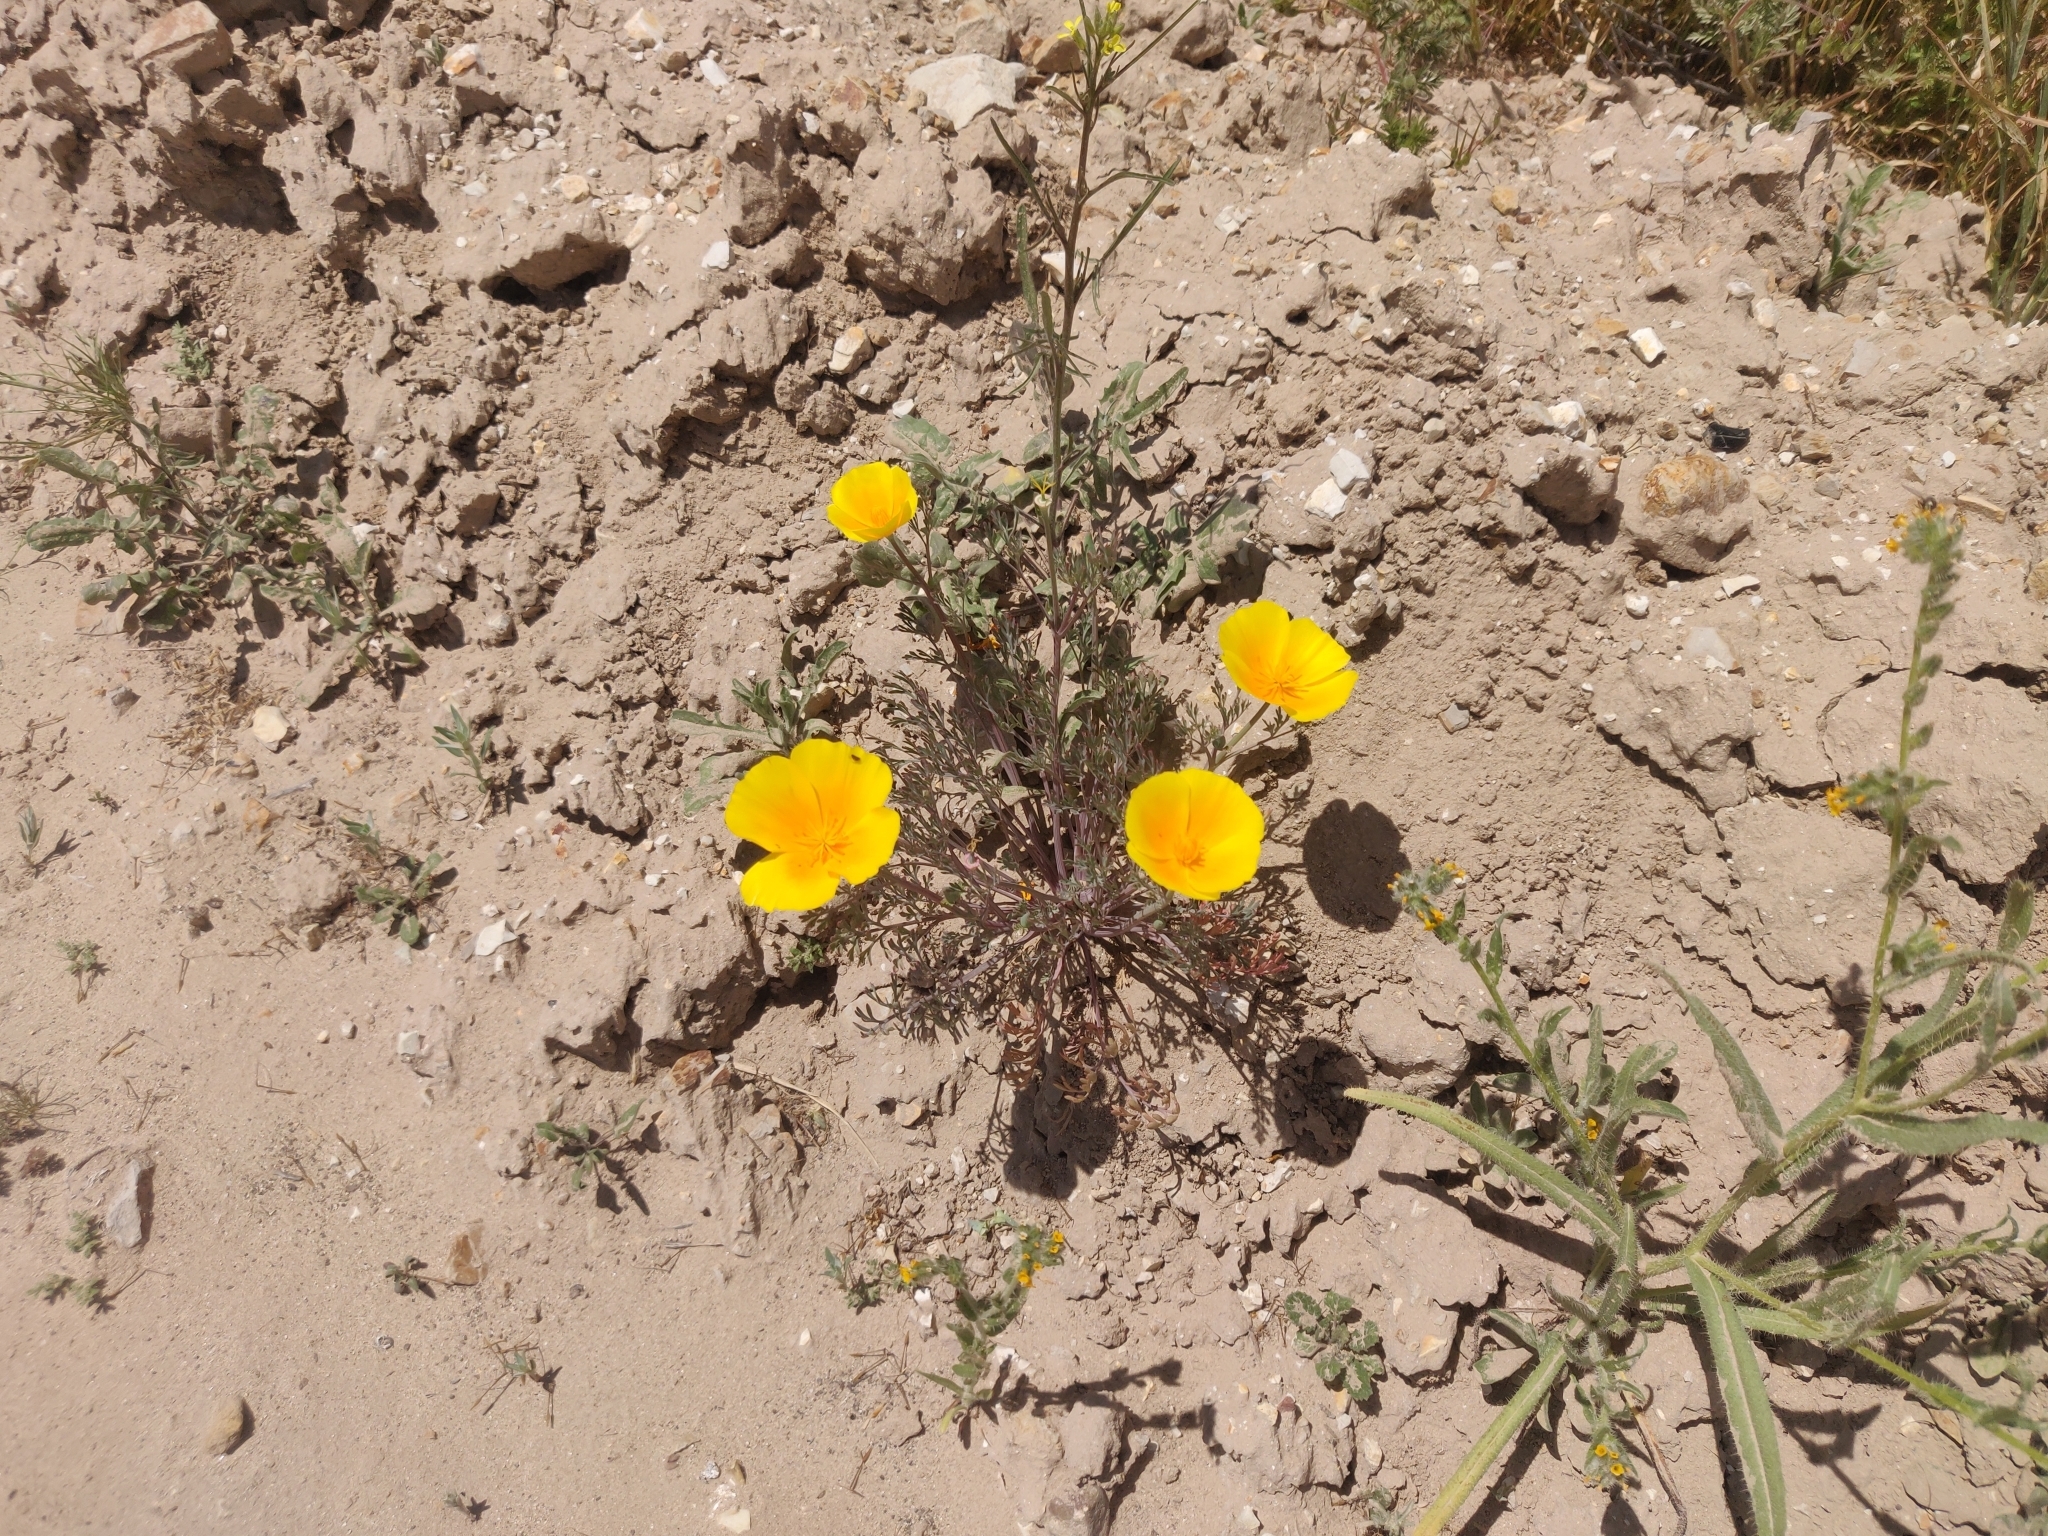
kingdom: Plantae
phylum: Tracheophyta
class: Magnoliopsida
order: Ranunculales
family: Papaveraceae
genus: Eschscholzia
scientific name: Eschscholzia californica
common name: California poppy
